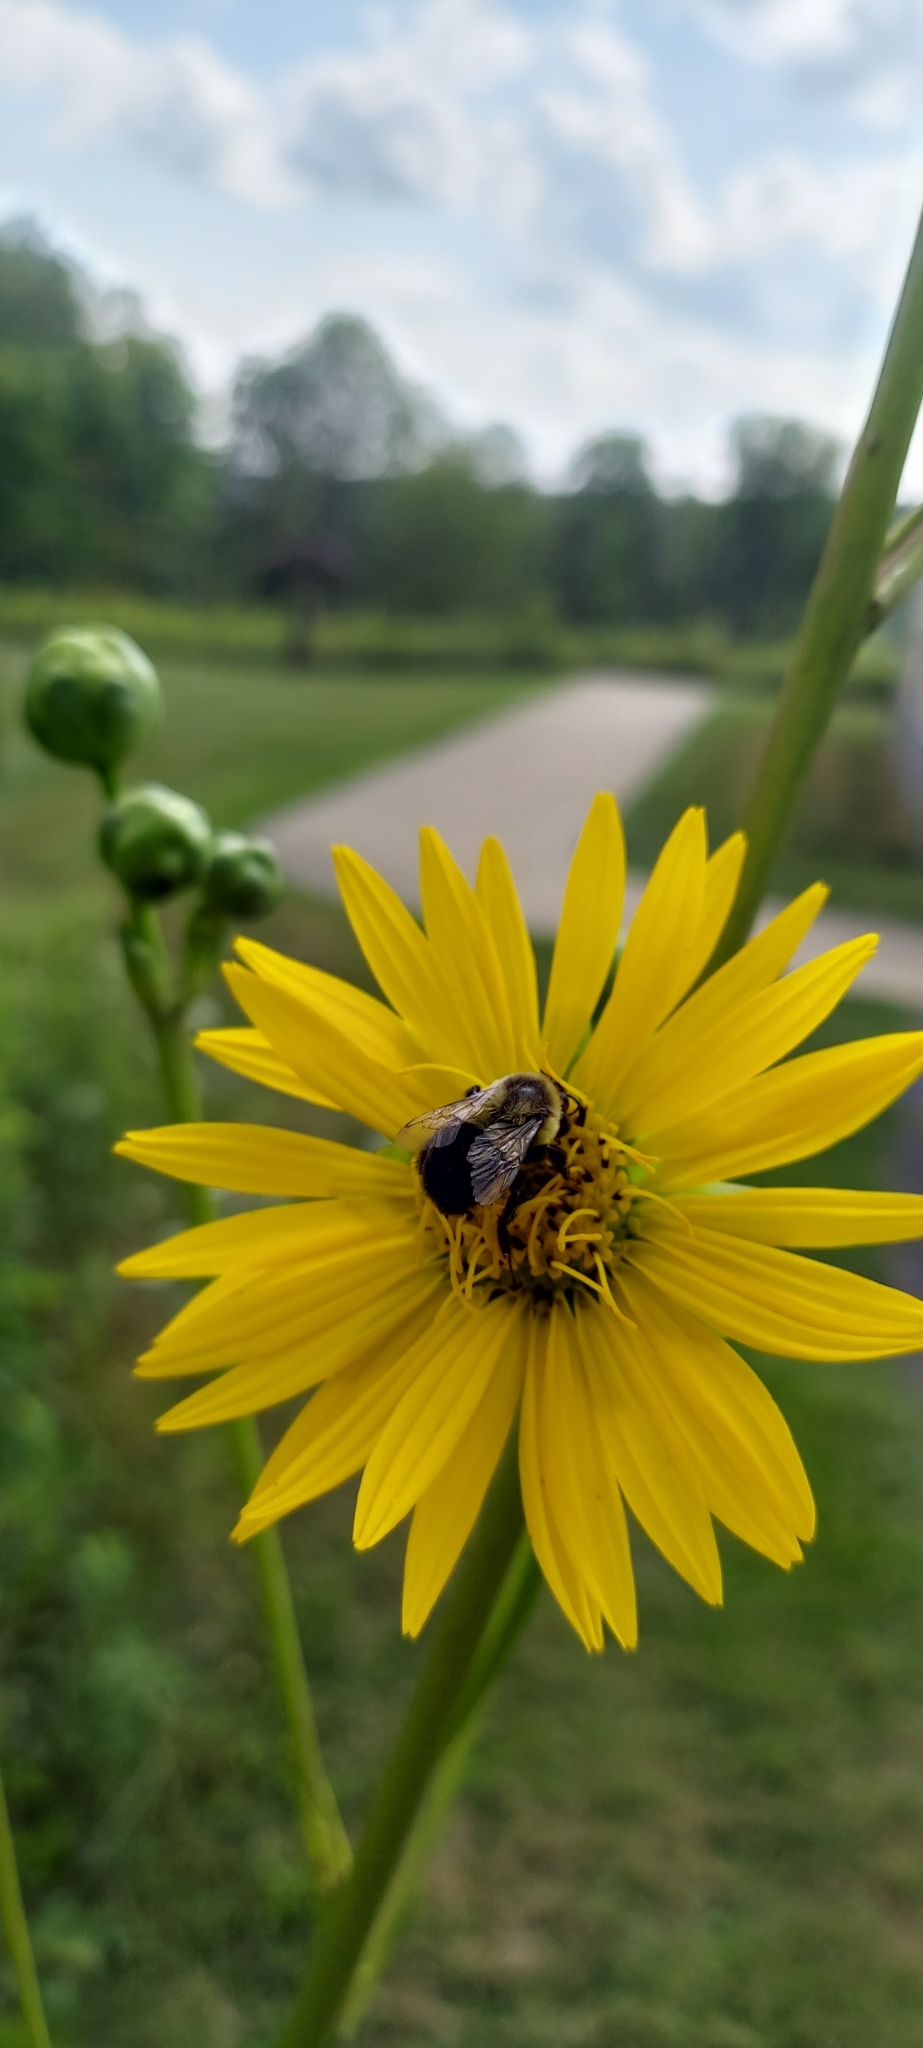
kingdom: Animalia
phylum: Arthropoda
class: Insecta
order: Hymenoptera
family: Apidae
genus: Bombus
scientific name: Bombus impatiens
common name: Common eastern bumble bee
